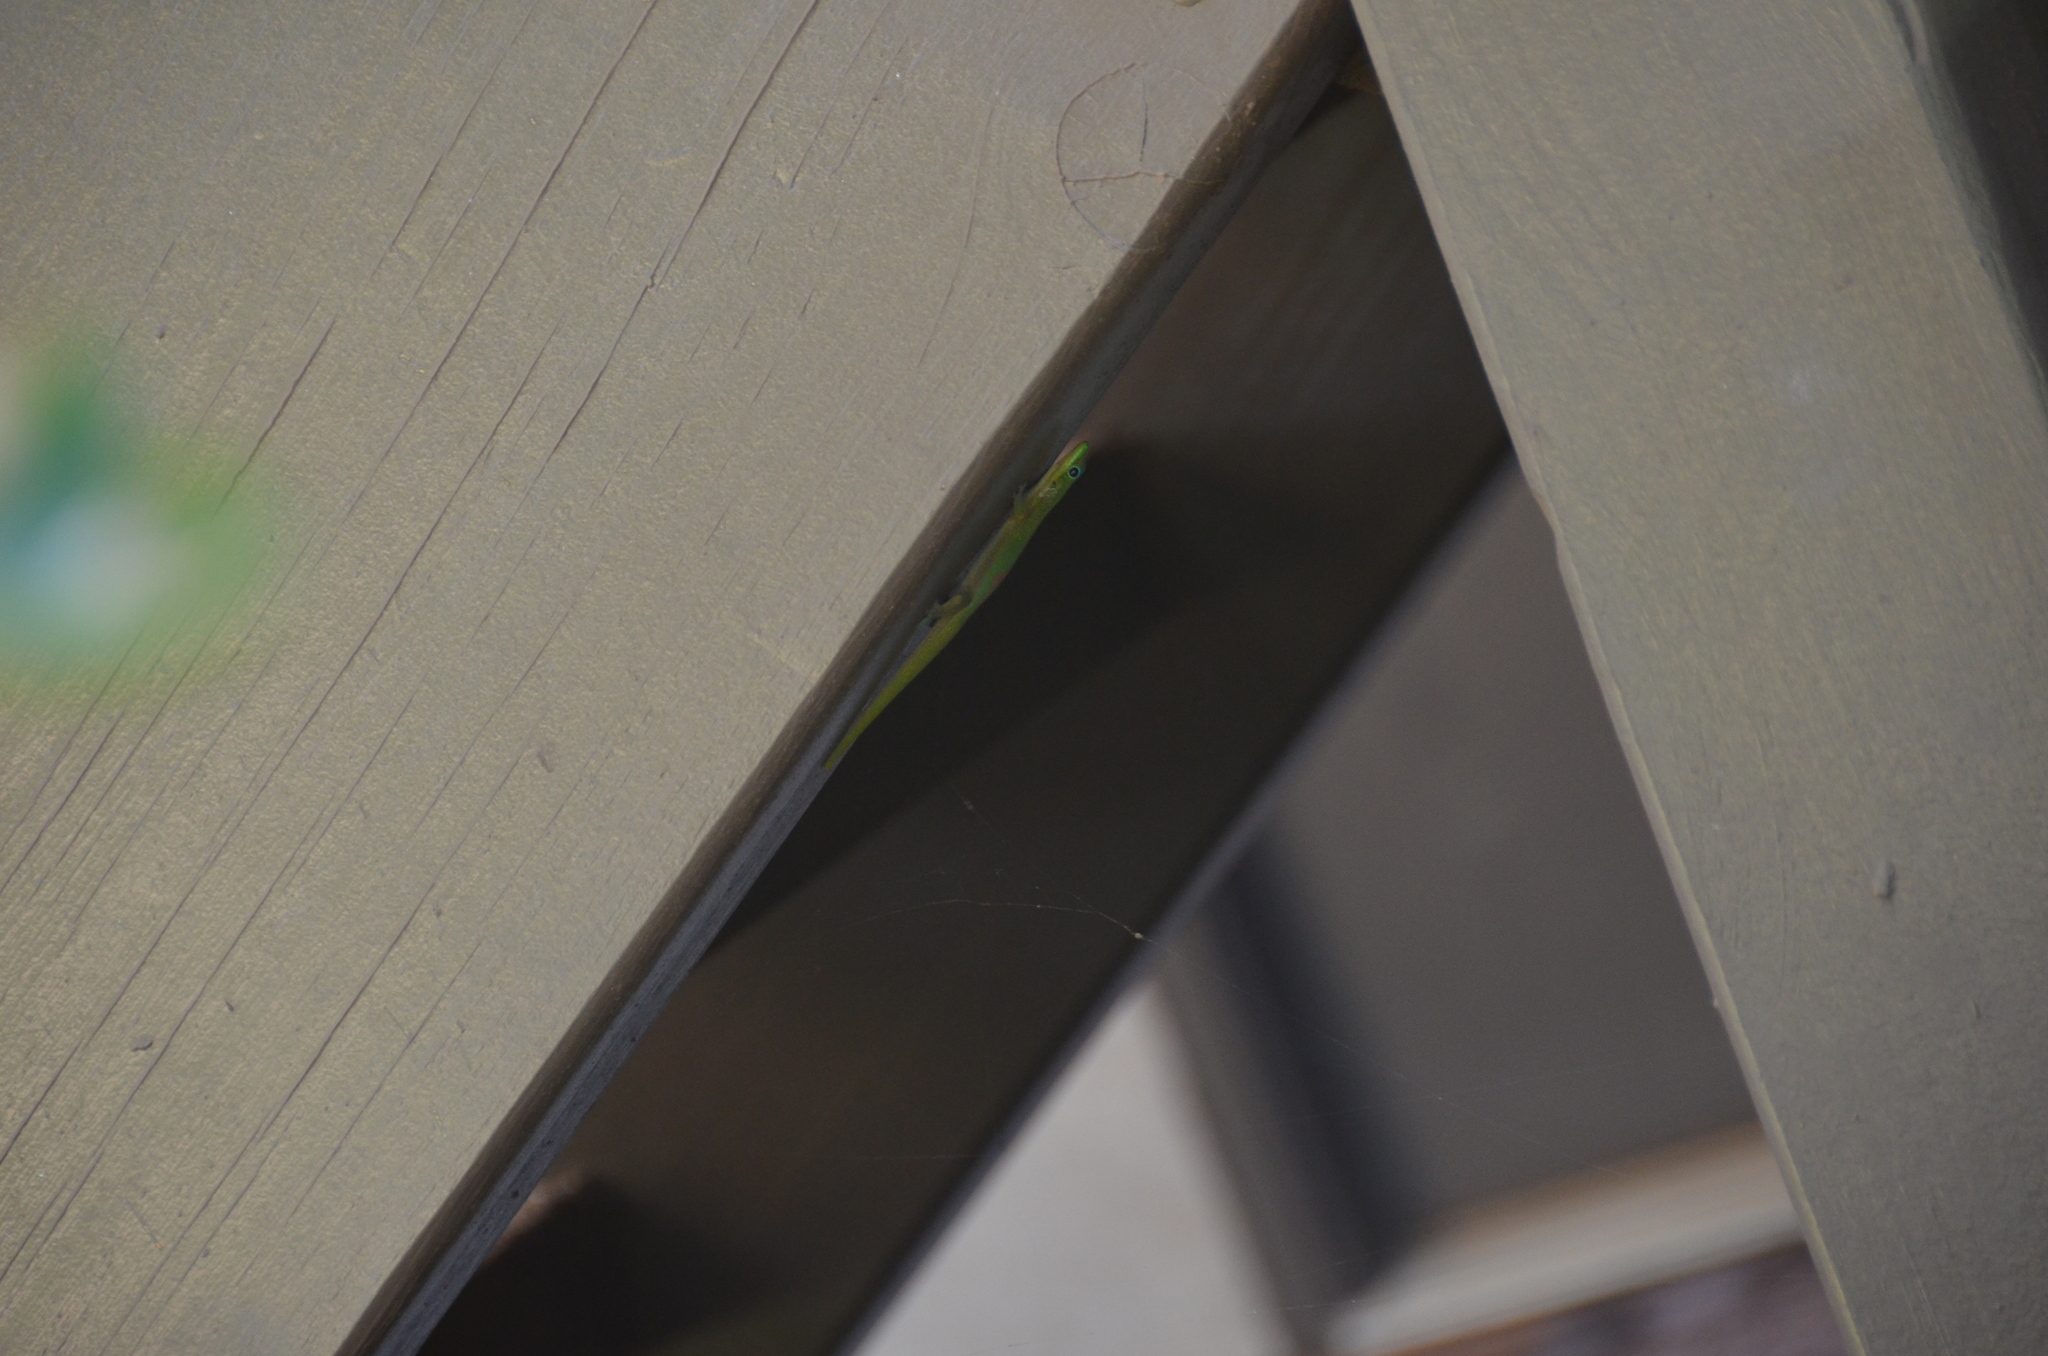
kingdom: Animalia
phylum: Chordata
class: Squamata
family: Gekkonidae
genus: Phelsuma
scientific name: Phelsuma laticauda
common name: Gold dust day gecko
